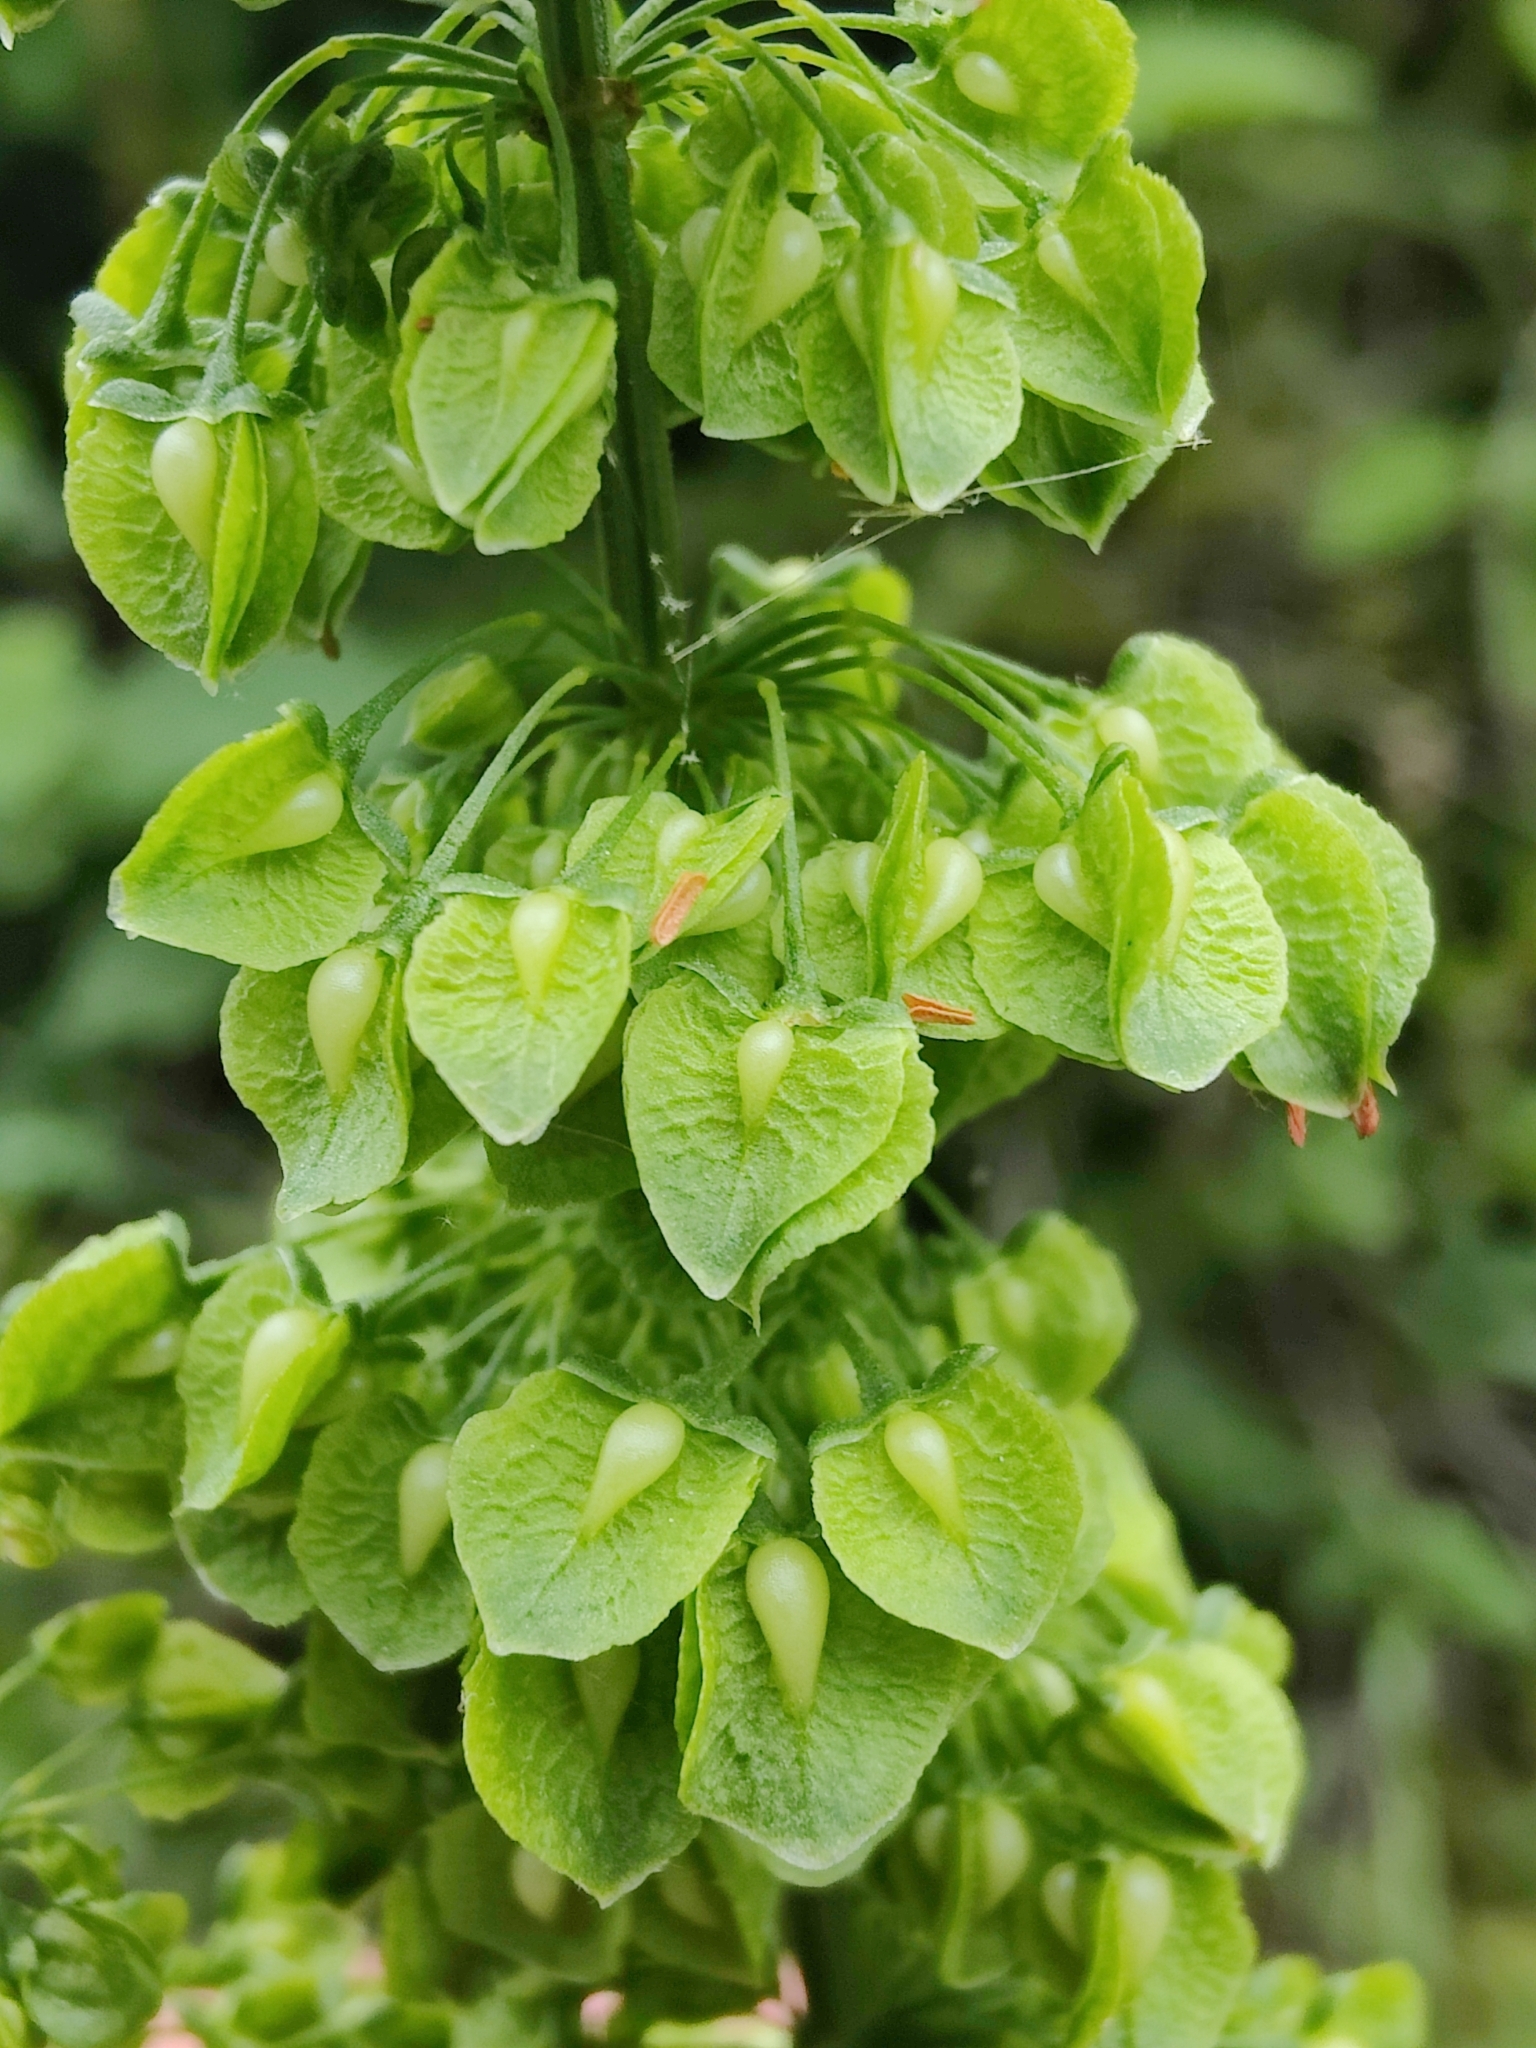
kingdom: Plantae
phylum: Tracheophyta
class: Magnoliopsida
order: Caryophyllales
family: Polygonaceae
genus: Rumex
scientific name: Rumex crispus
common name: Curled dock
